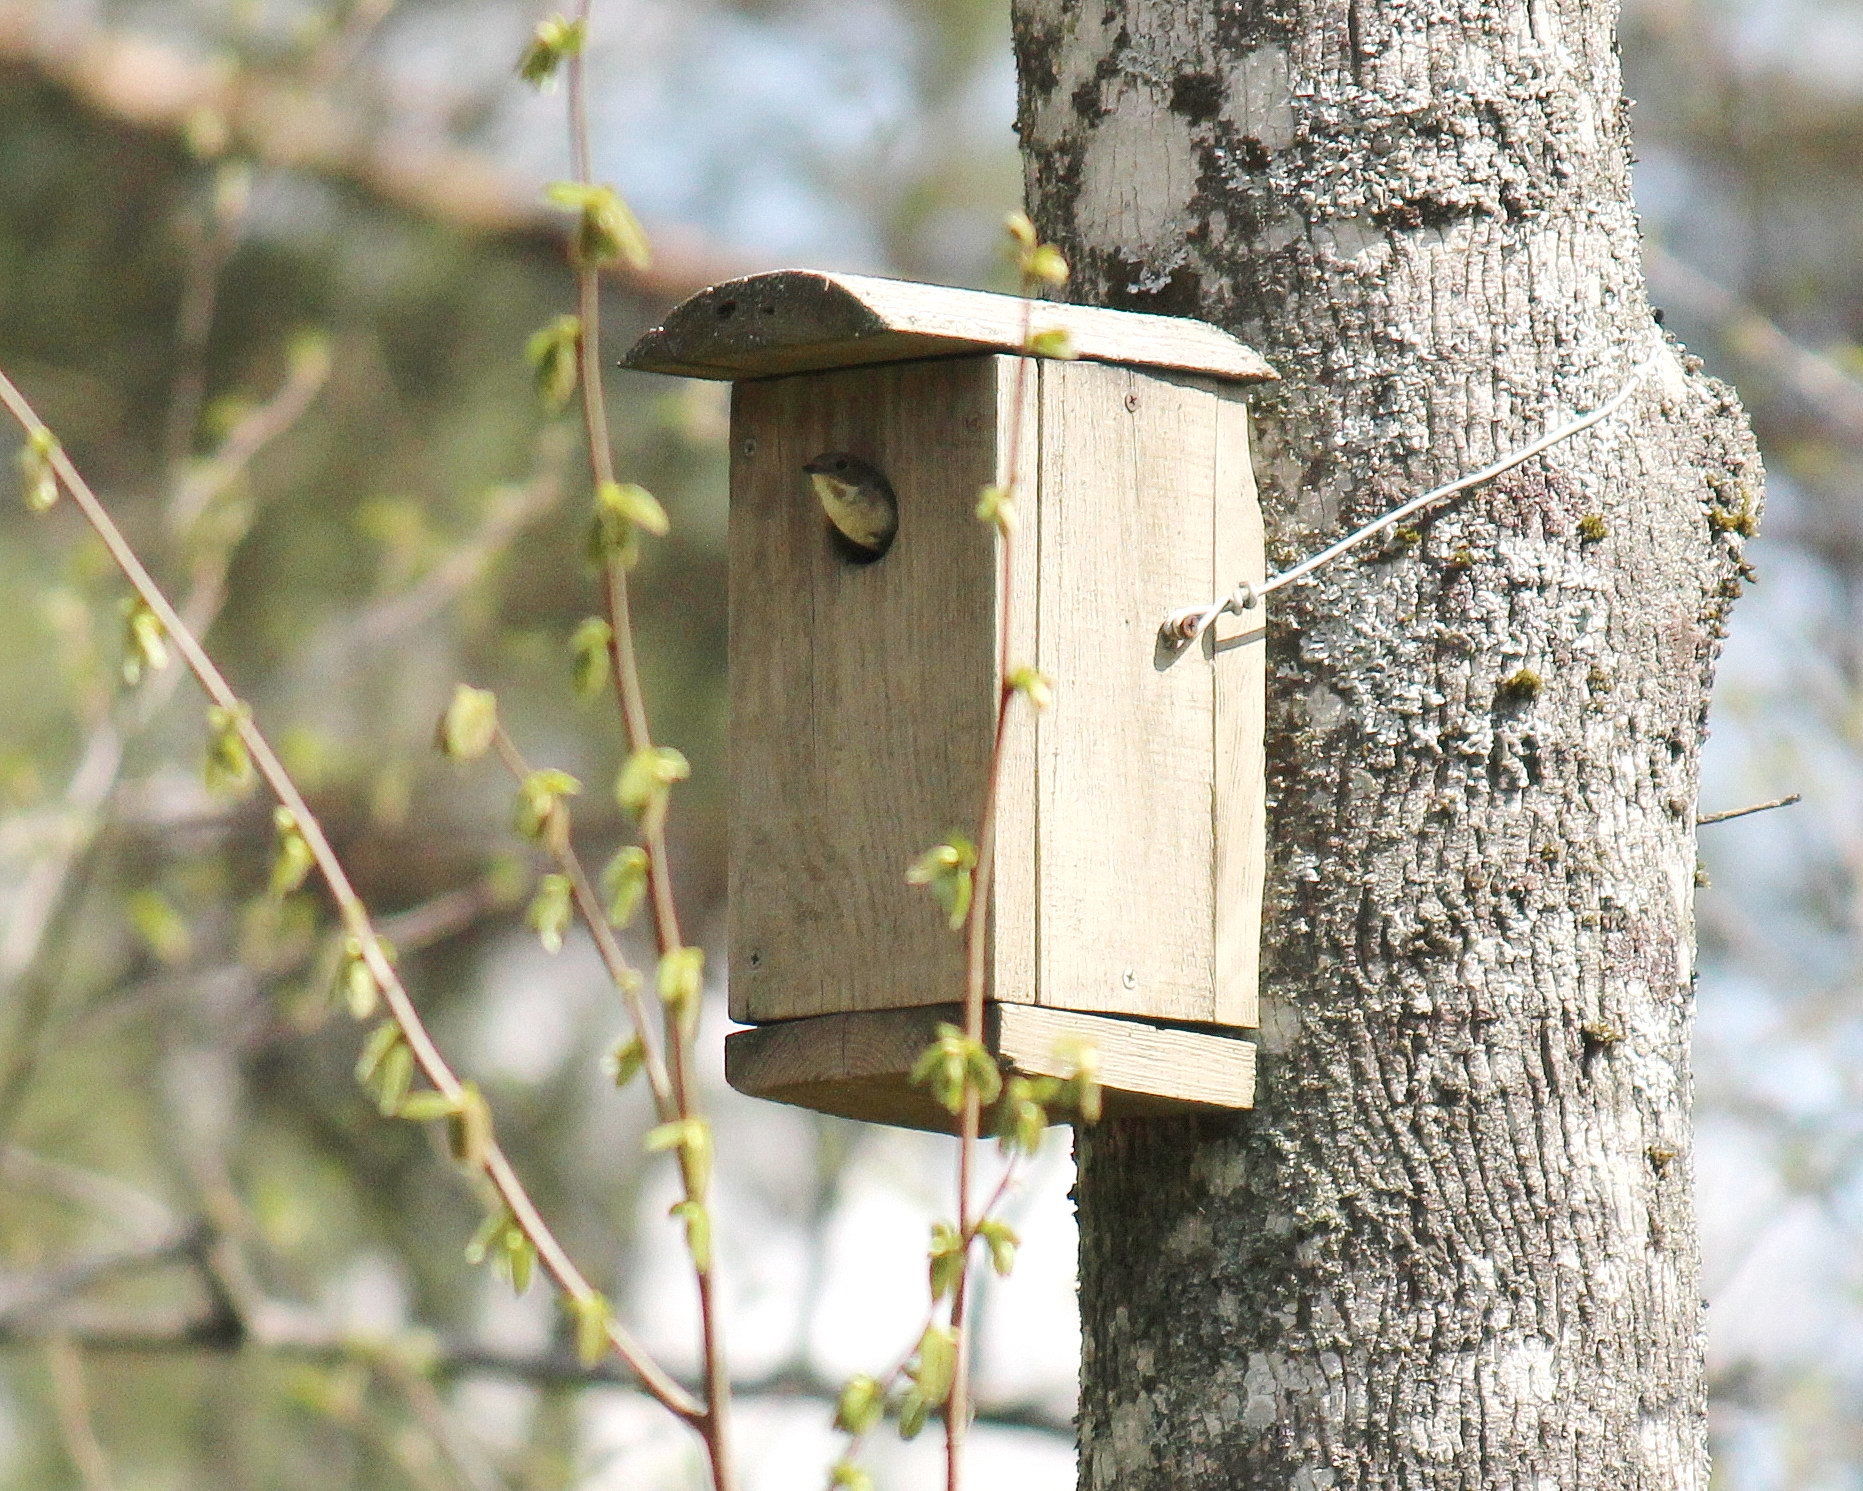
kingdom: Animalia
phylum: Chordata
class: Aves
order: Passeriformes
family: Muscicapidae
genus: Ficedula
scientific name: Ficedula hypoleuca
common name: European pied flycatcher
